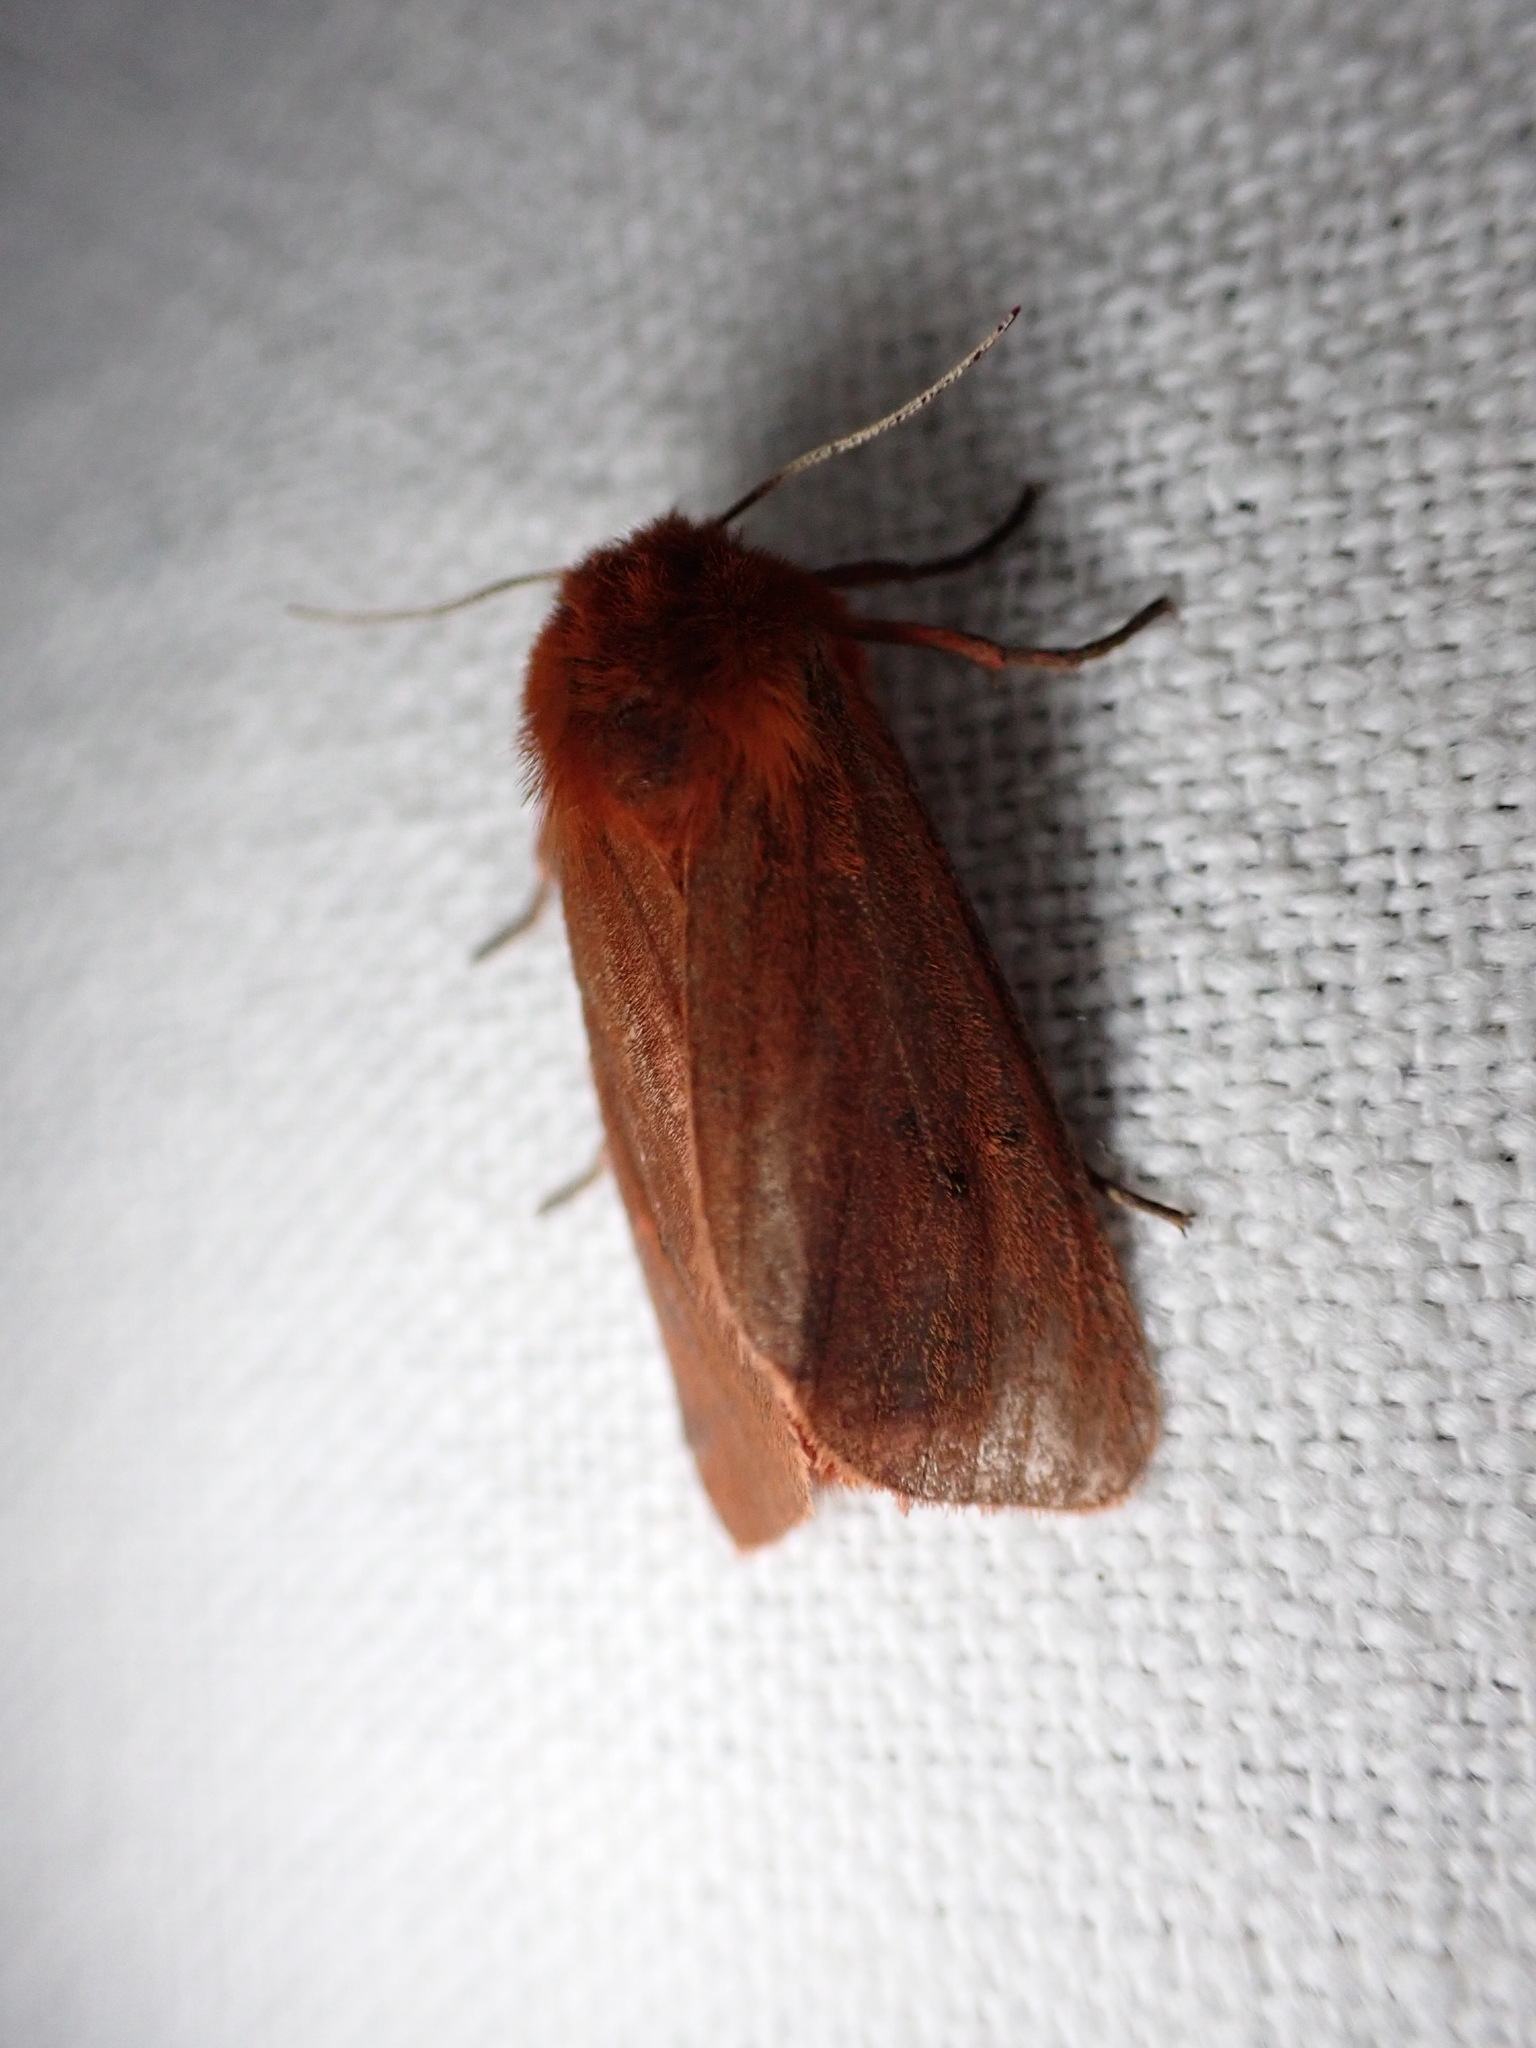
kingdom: Animalia
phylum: Arthropoda
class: Insecta
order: Lepidoptera
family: Erebidae
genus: Phragmatobia
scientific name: Phragmatobia fuliginosa
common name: Ruby tiger
